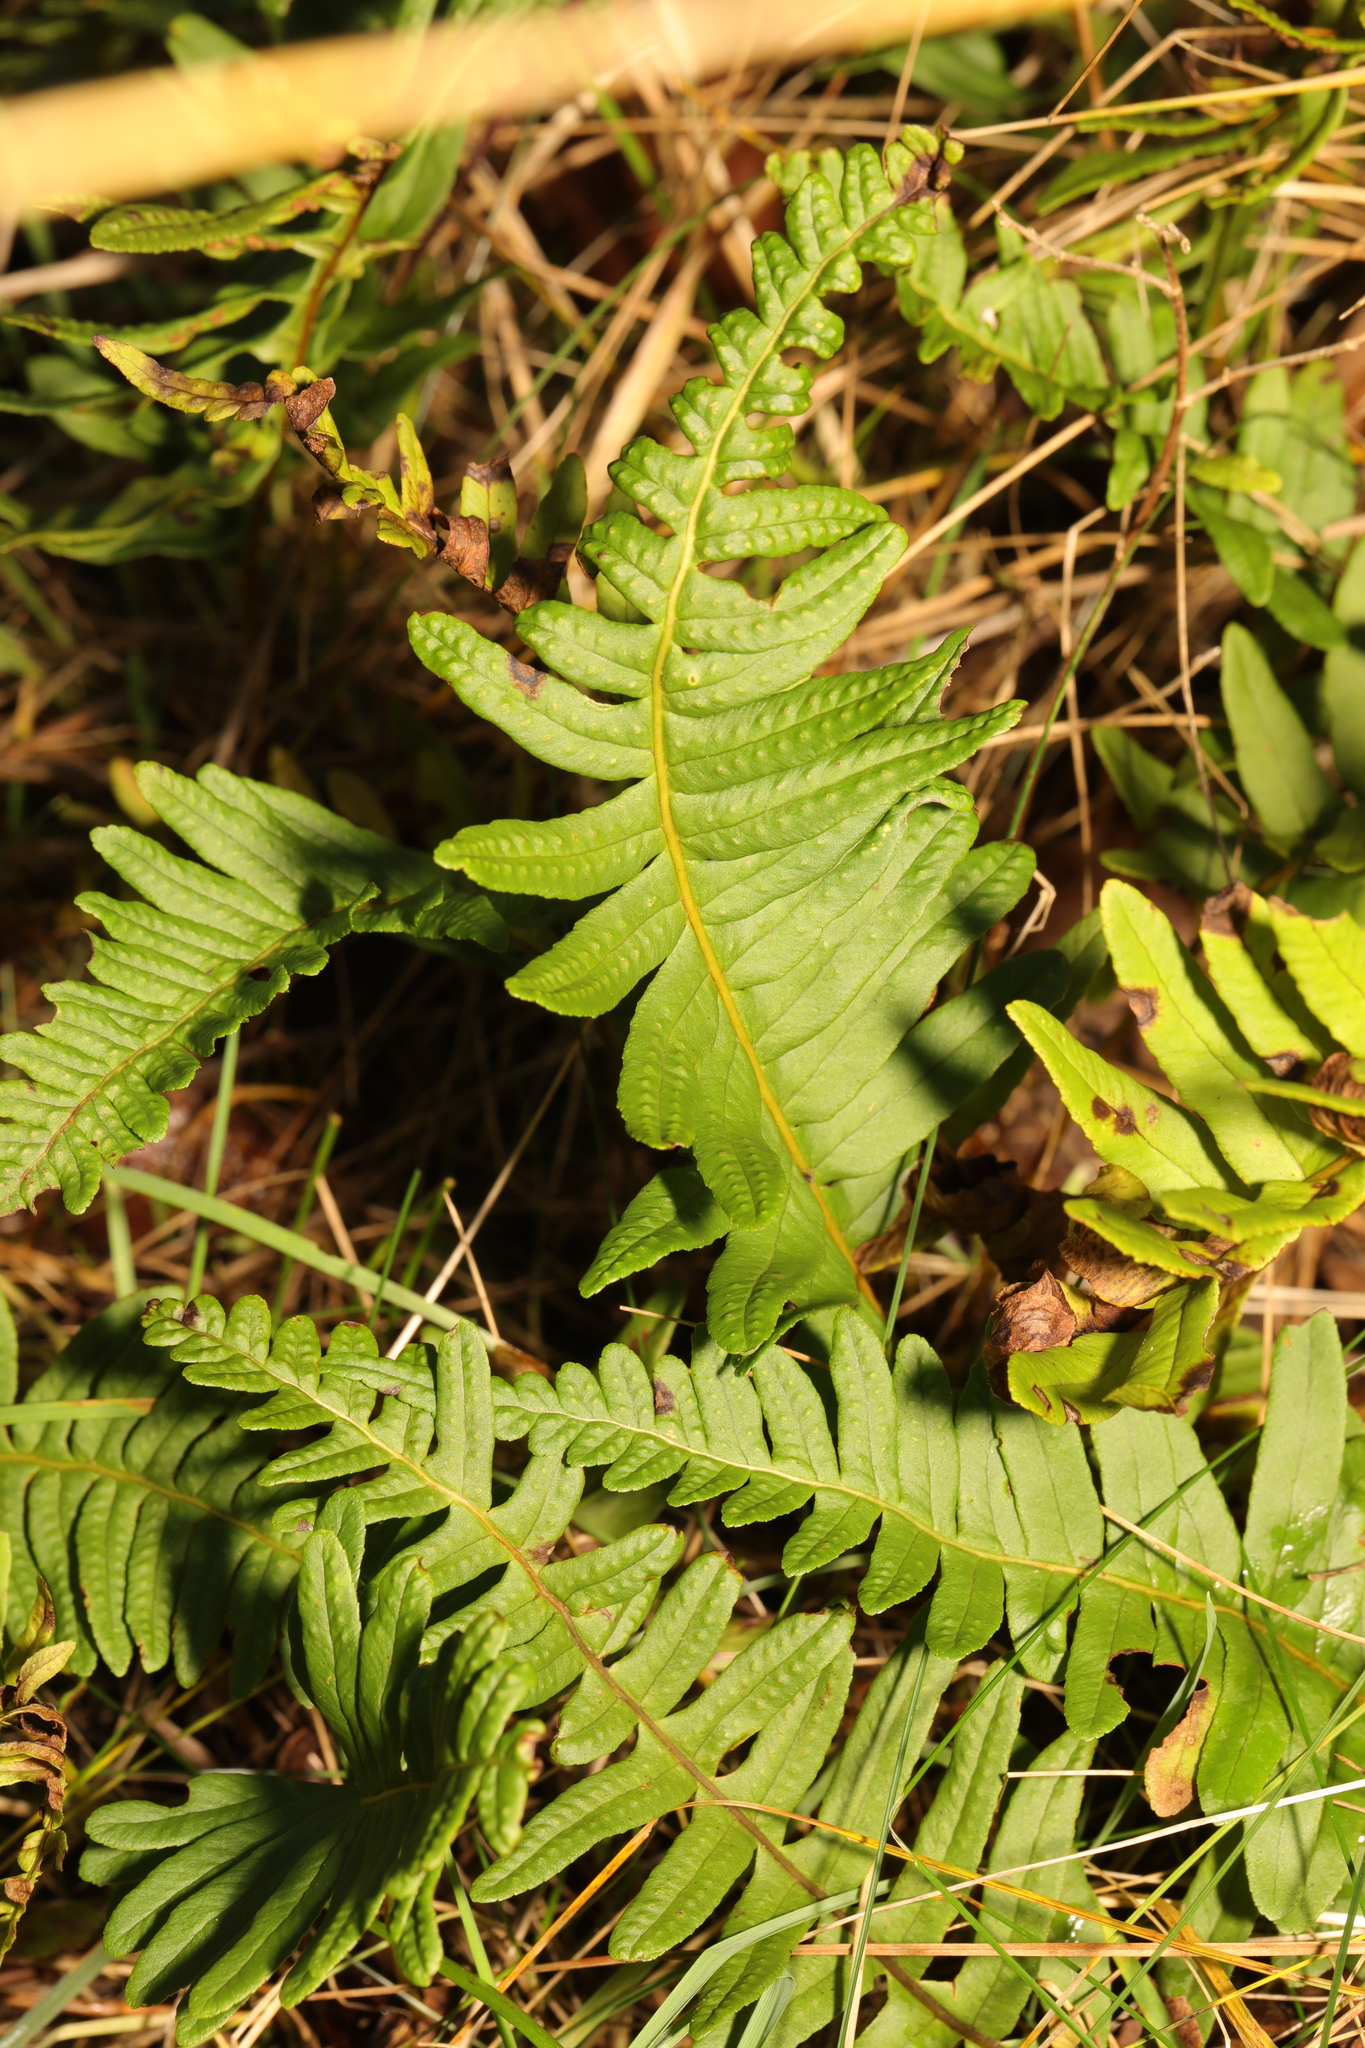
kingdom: Plantae
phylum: Tracheophyta
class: Polypodiopsida
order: Polypodiales
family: Polypodiaceae
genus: Polypodium
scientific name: Polypodium interjectum
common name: Intermediate polypody
